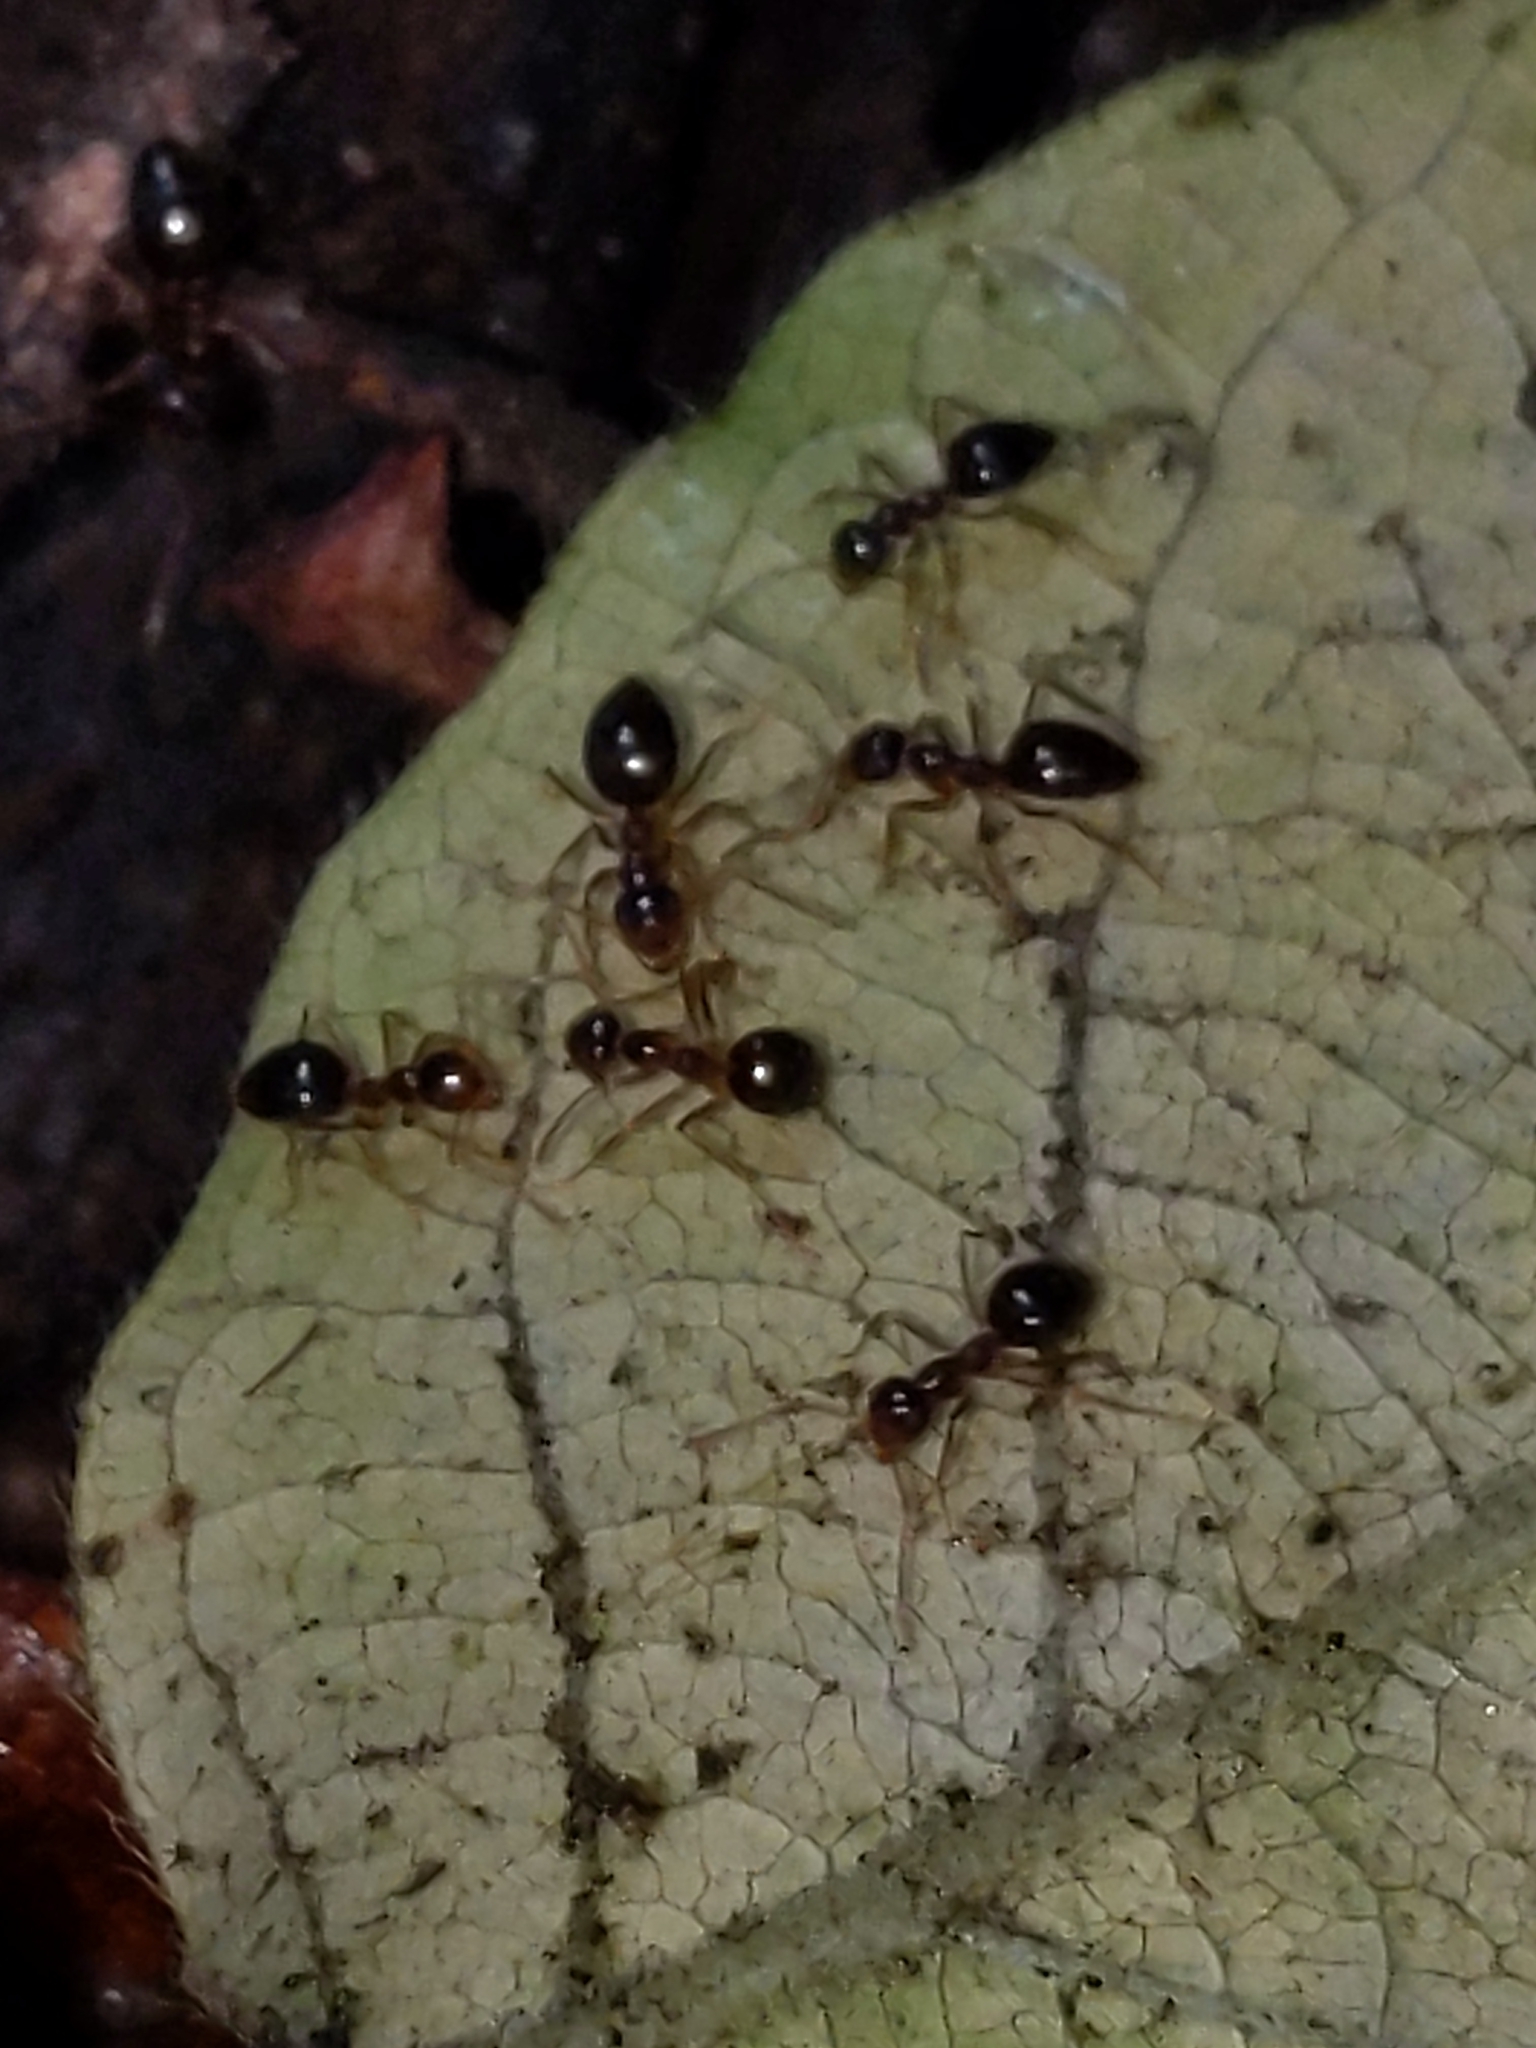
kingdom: Animalia
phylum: Arthropoda
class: Insecta
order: Hymenoptera
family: Formicidae
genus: Prenolepis
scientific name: Prenolepis imparis
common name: Small honey ant
